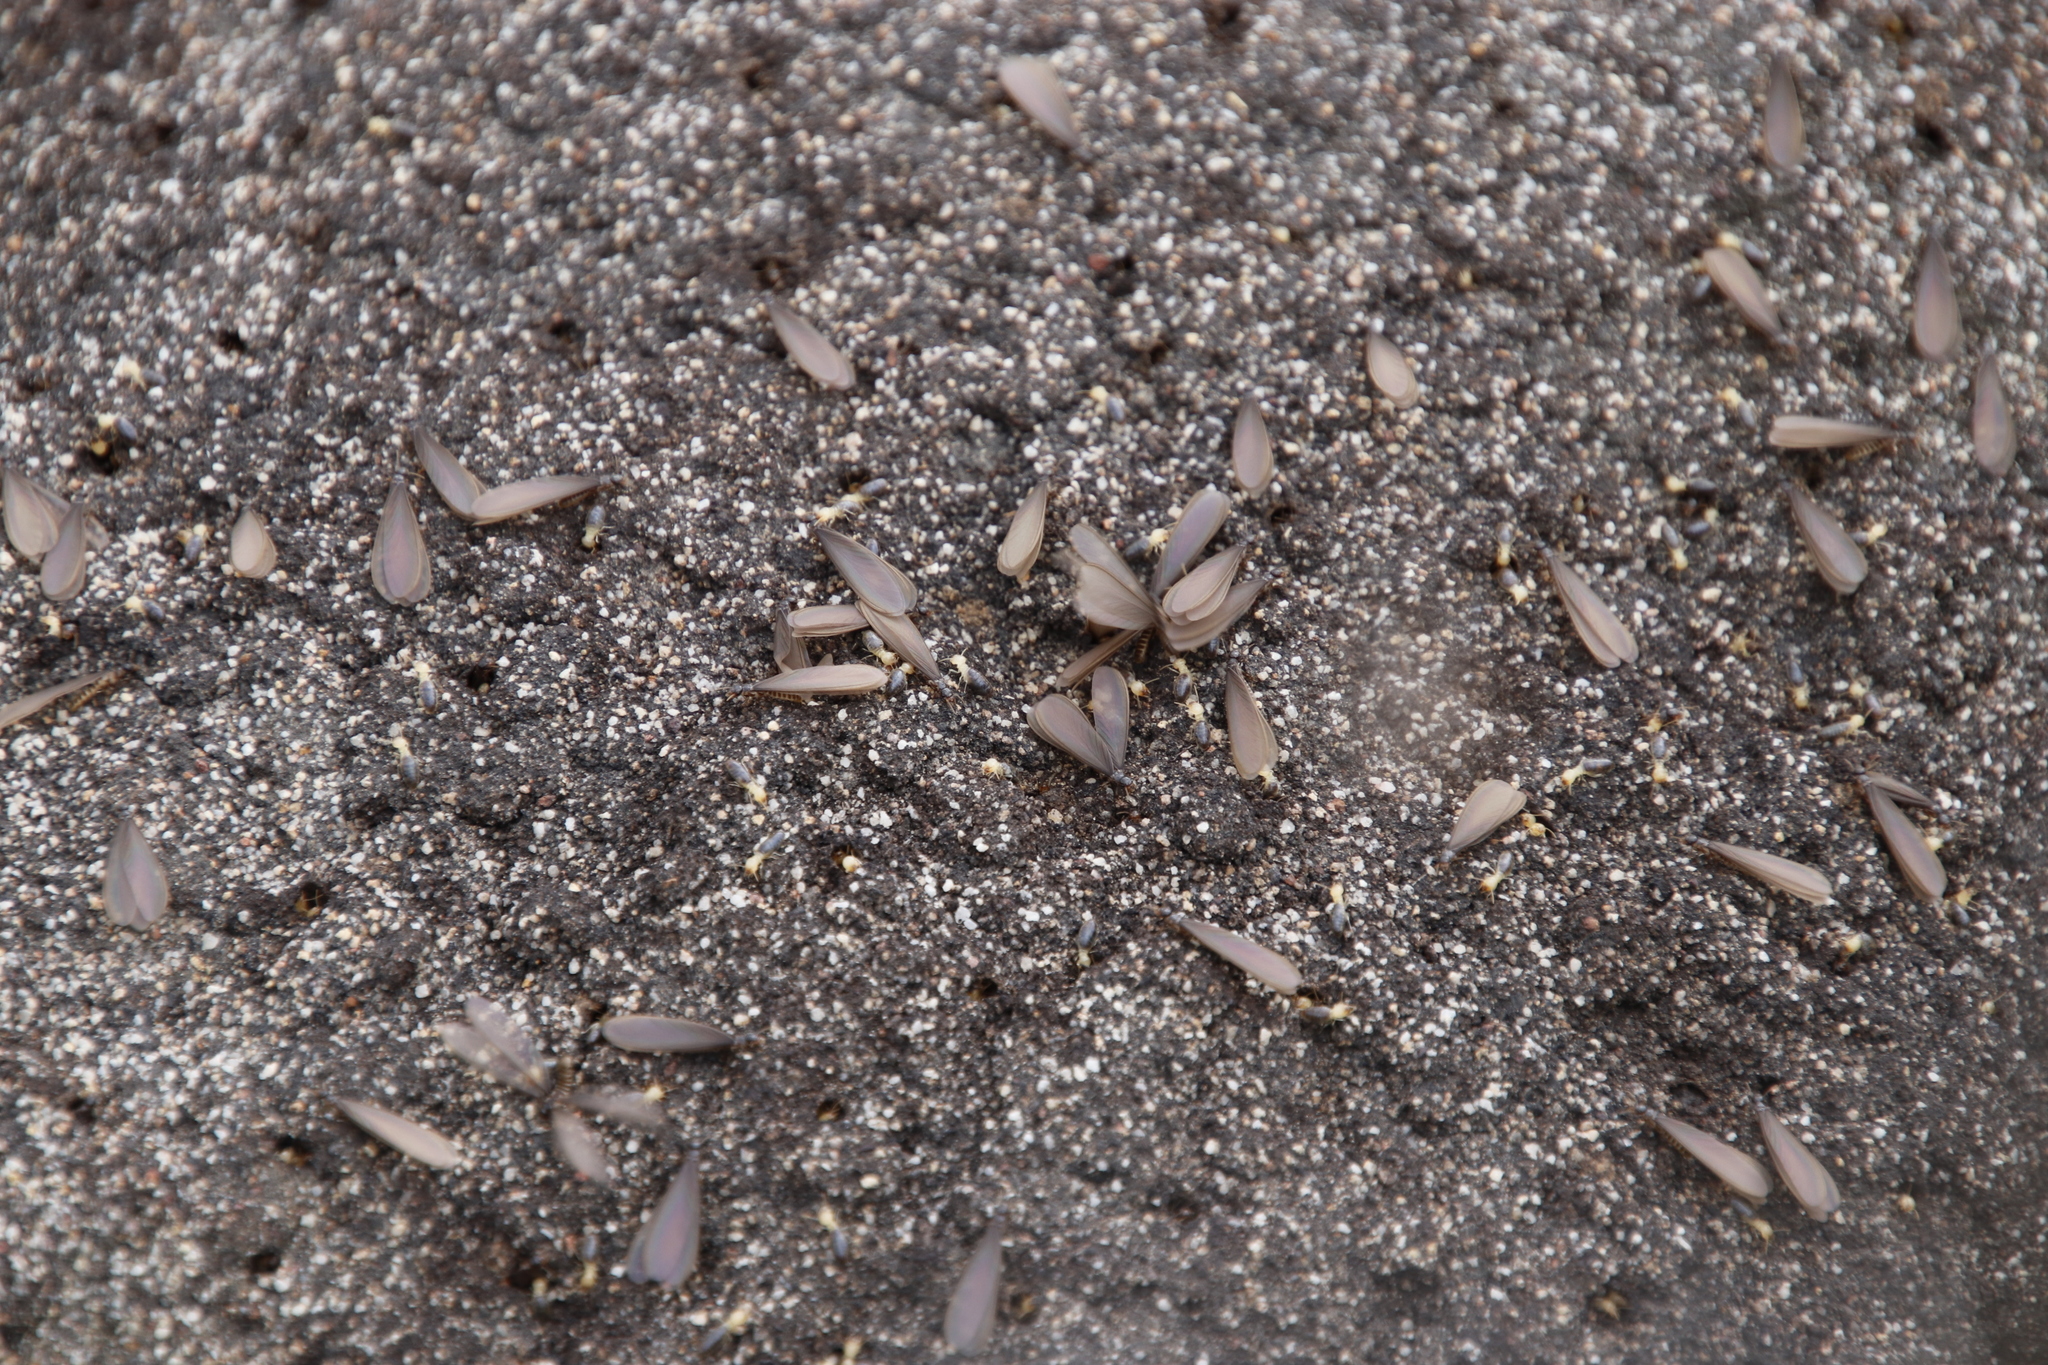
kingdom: Animalia
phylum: Arthropoda
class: Insecta
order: Blattodea
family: Termitidae
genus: Amitermes
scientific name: Amitermes hastatus
